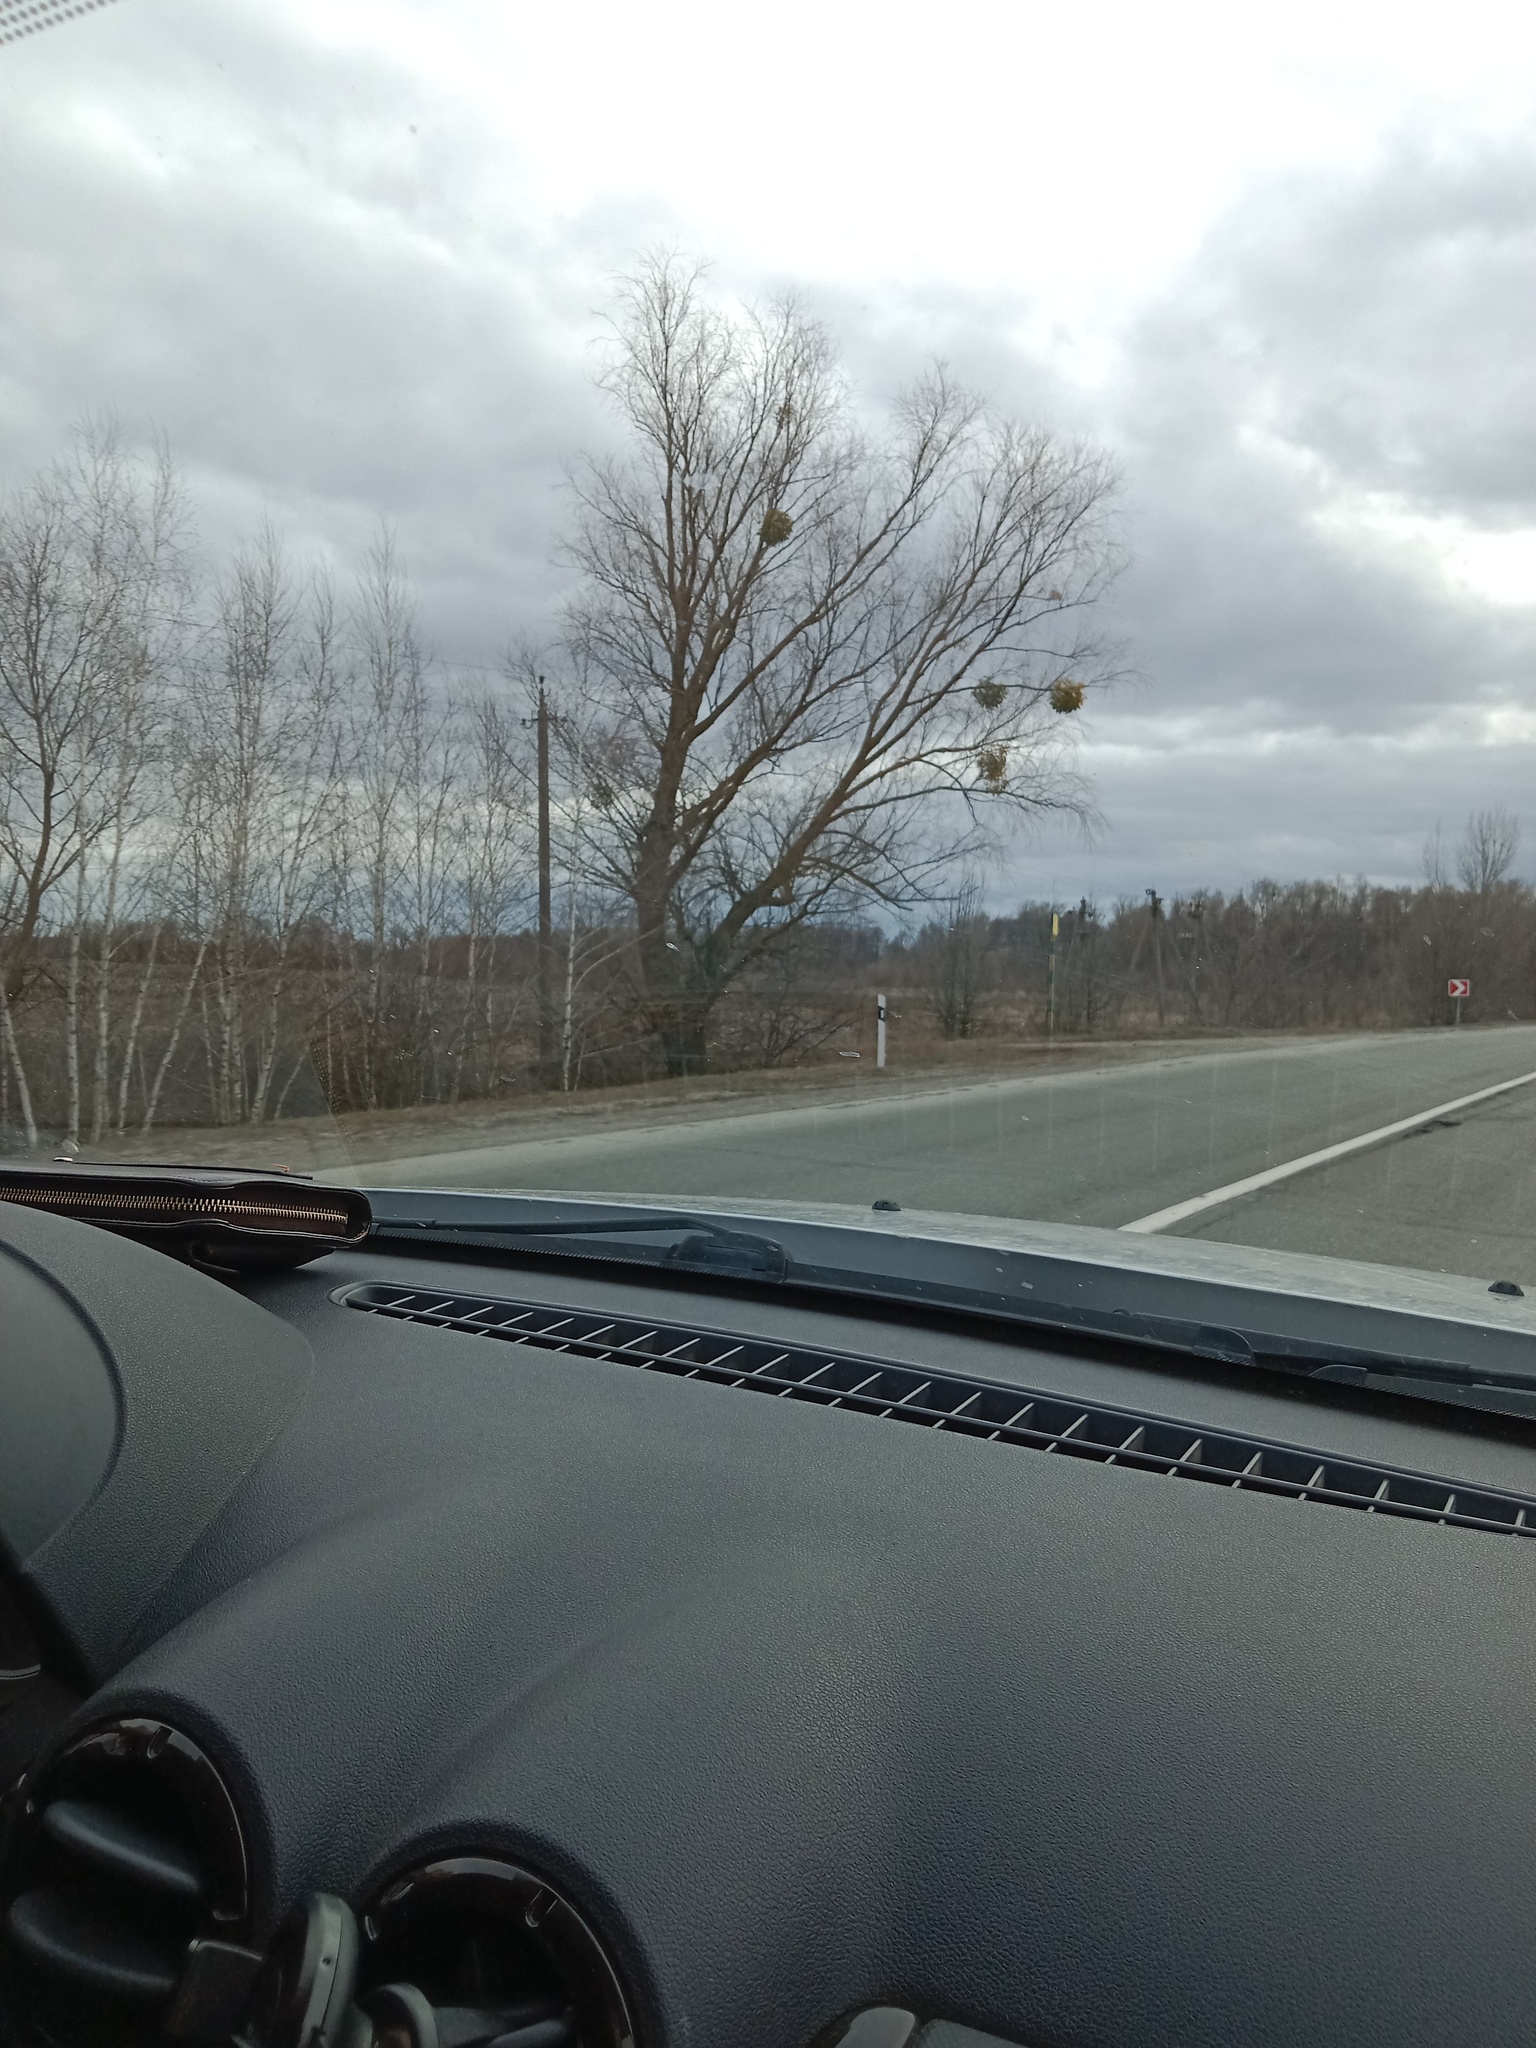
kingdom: Plantae
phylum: Tracheophyta
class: Magnoliopsida
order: Santalales
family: Viscaceae
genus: Viscum
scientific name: Viscum album
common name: Mistletoe
